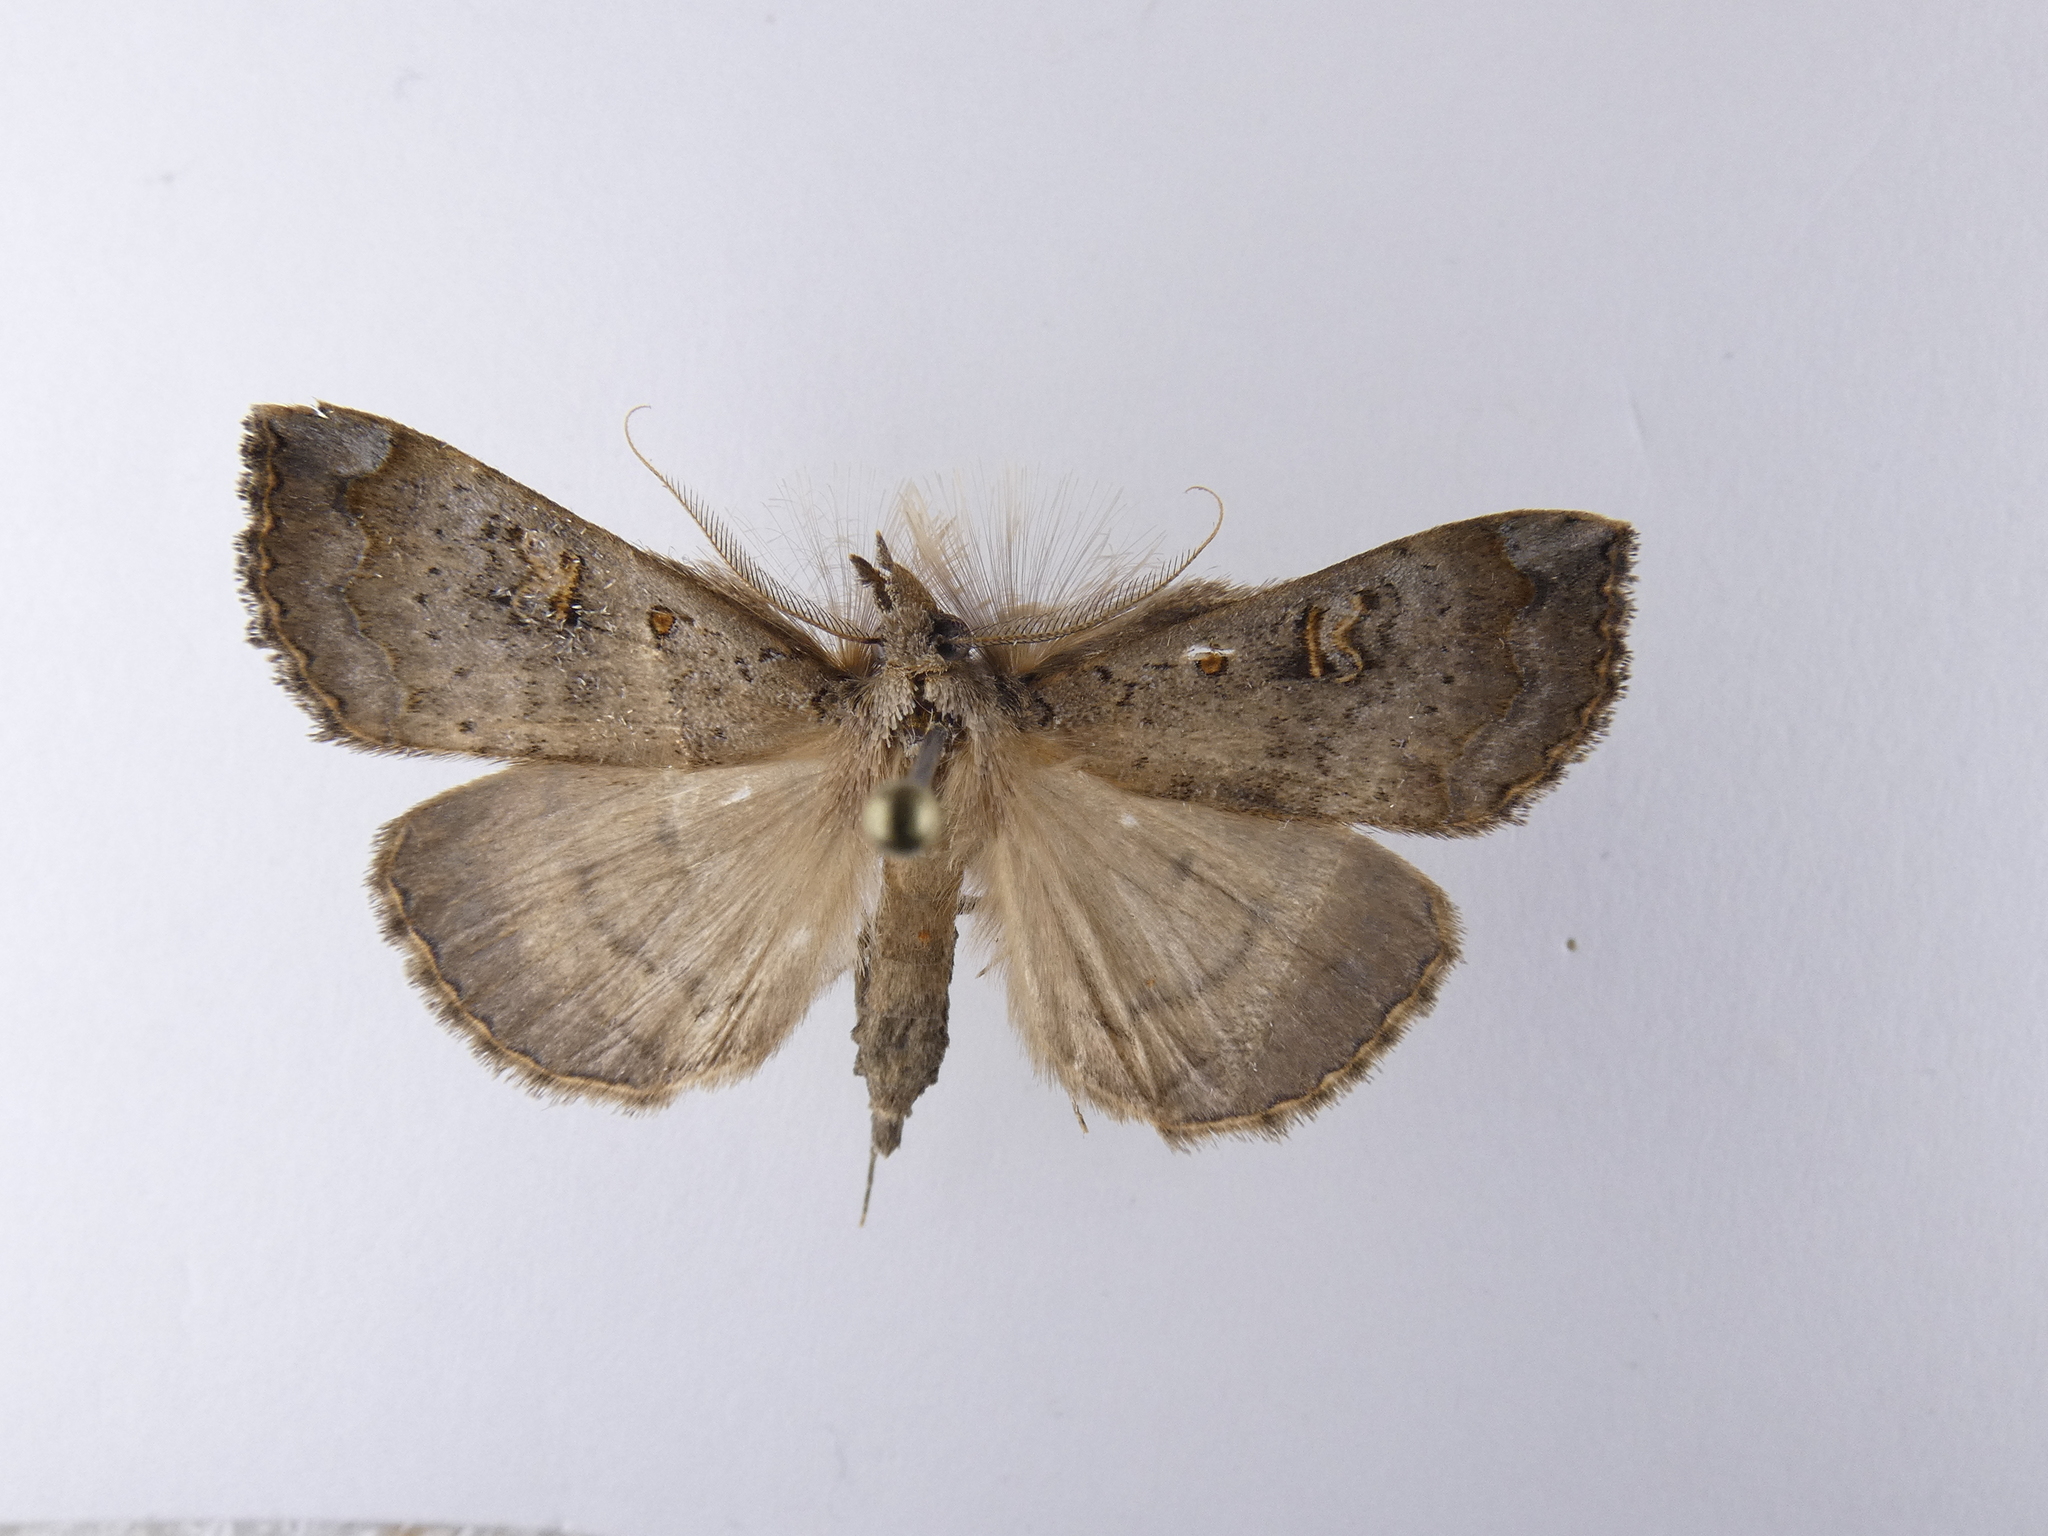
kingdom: Animalia
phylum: Arthropoda
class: Insecta
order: Lepidoptera
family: Erebidae
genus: Rhapsa
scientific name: Rhapsa scotosialis
